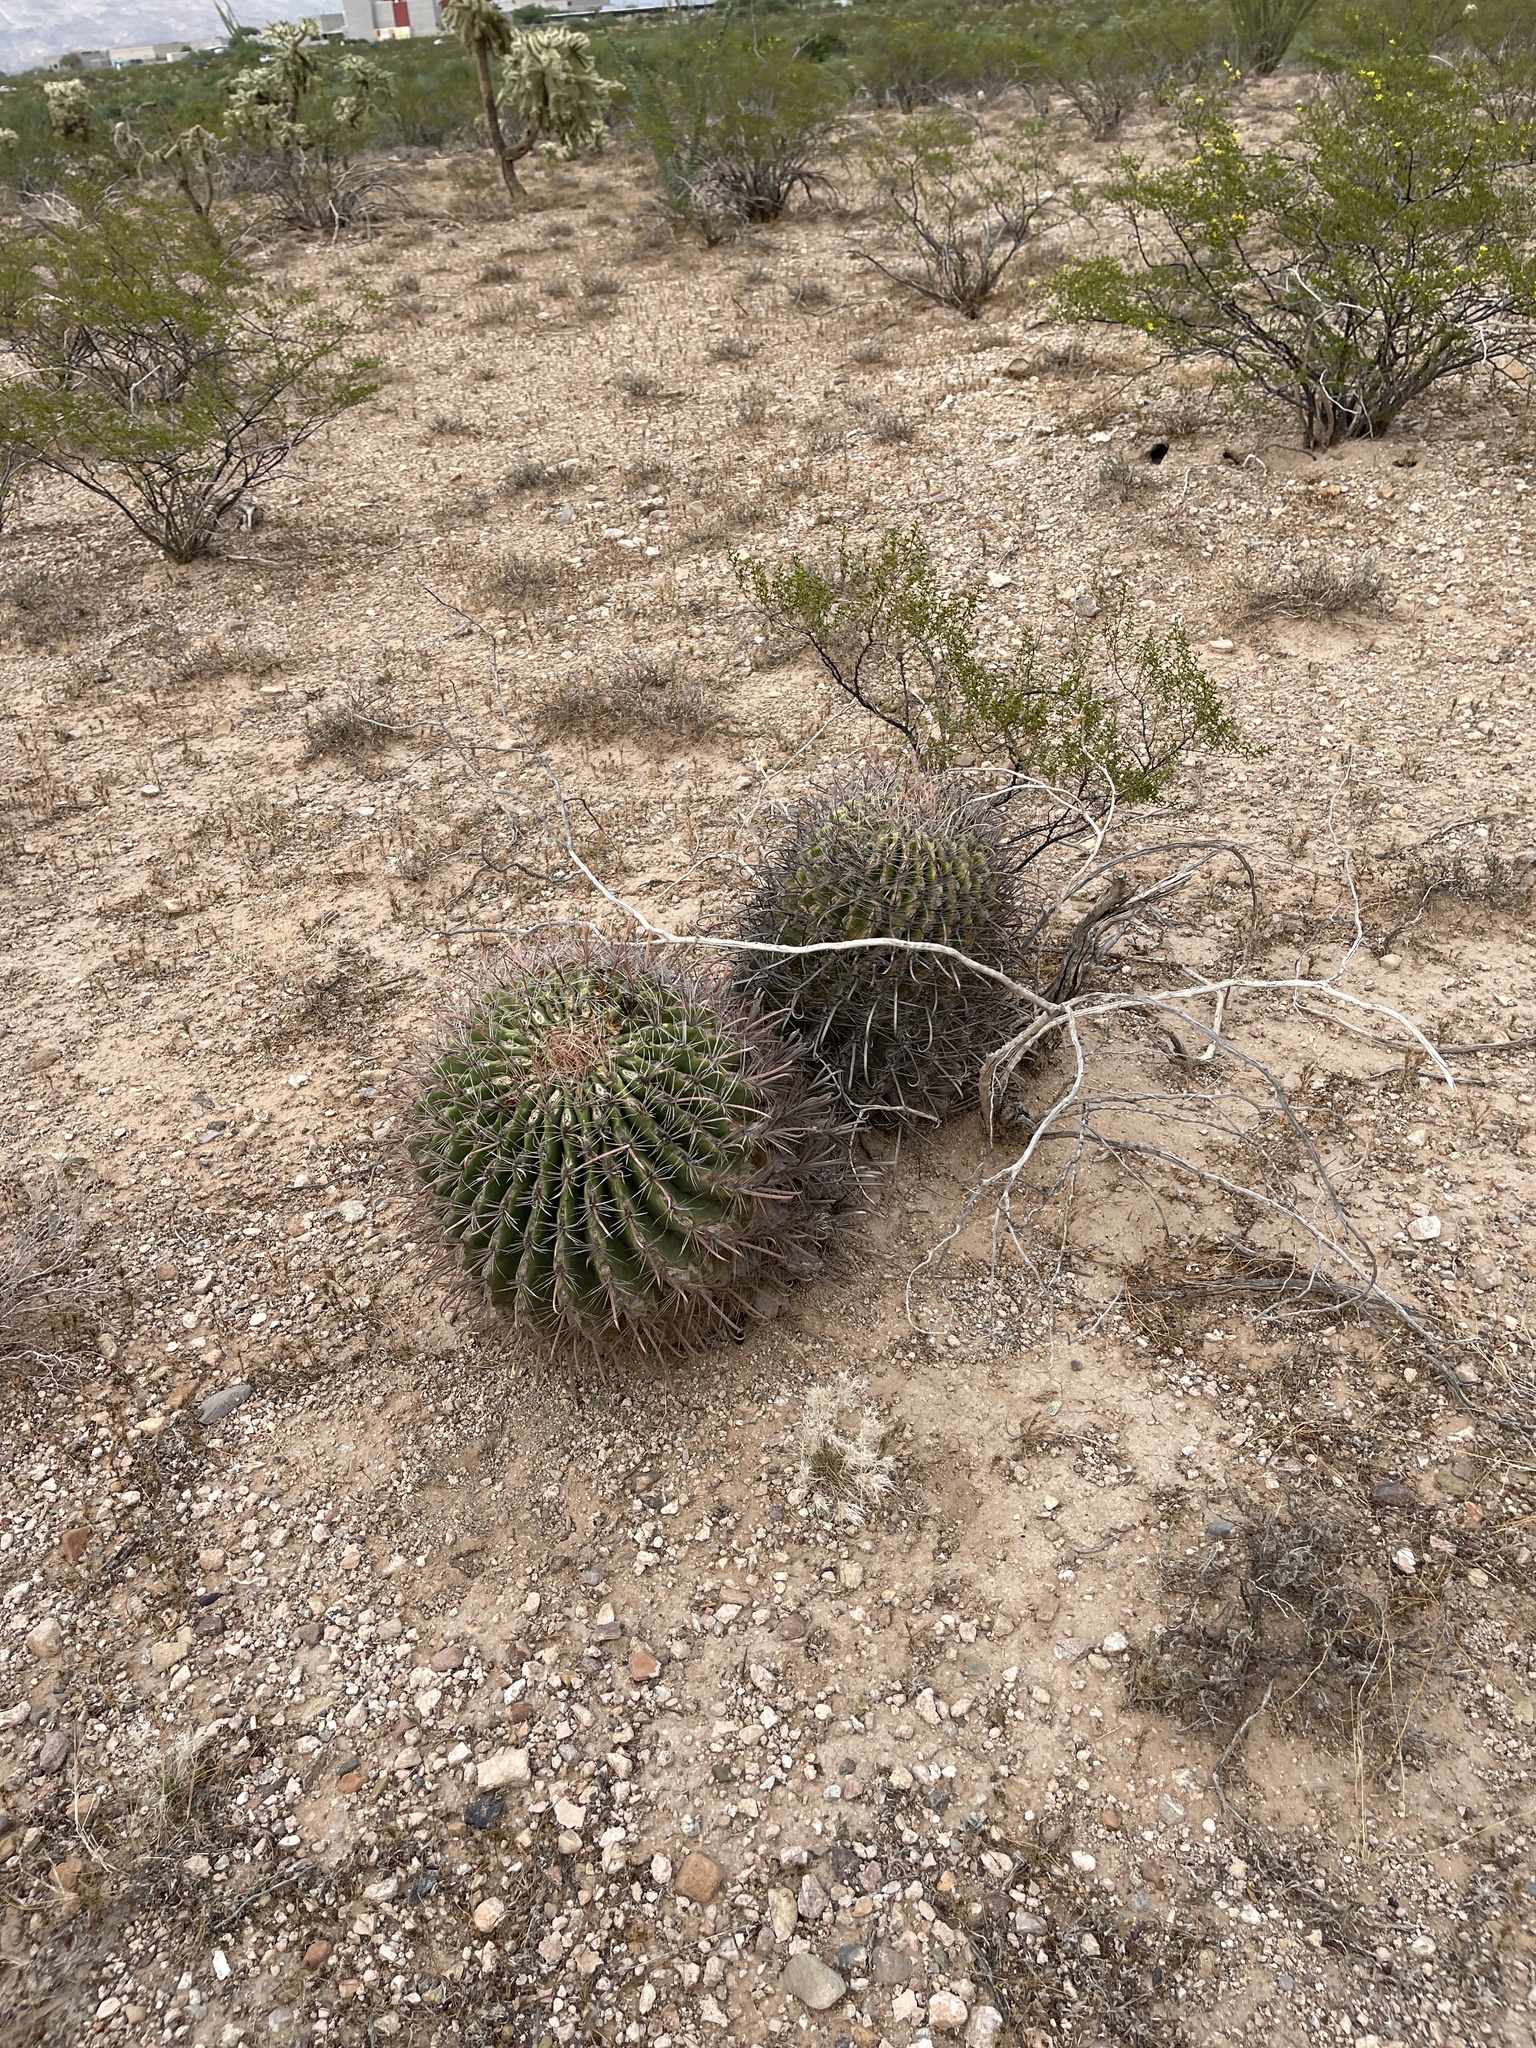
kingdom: Plantae
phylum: Tracheophyta
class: Magnoliopsida
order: Caryophyllales
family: Cactaceae
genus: Ferocactus
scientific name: Ferocactus wislizeni
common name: Candy barrel cactus
